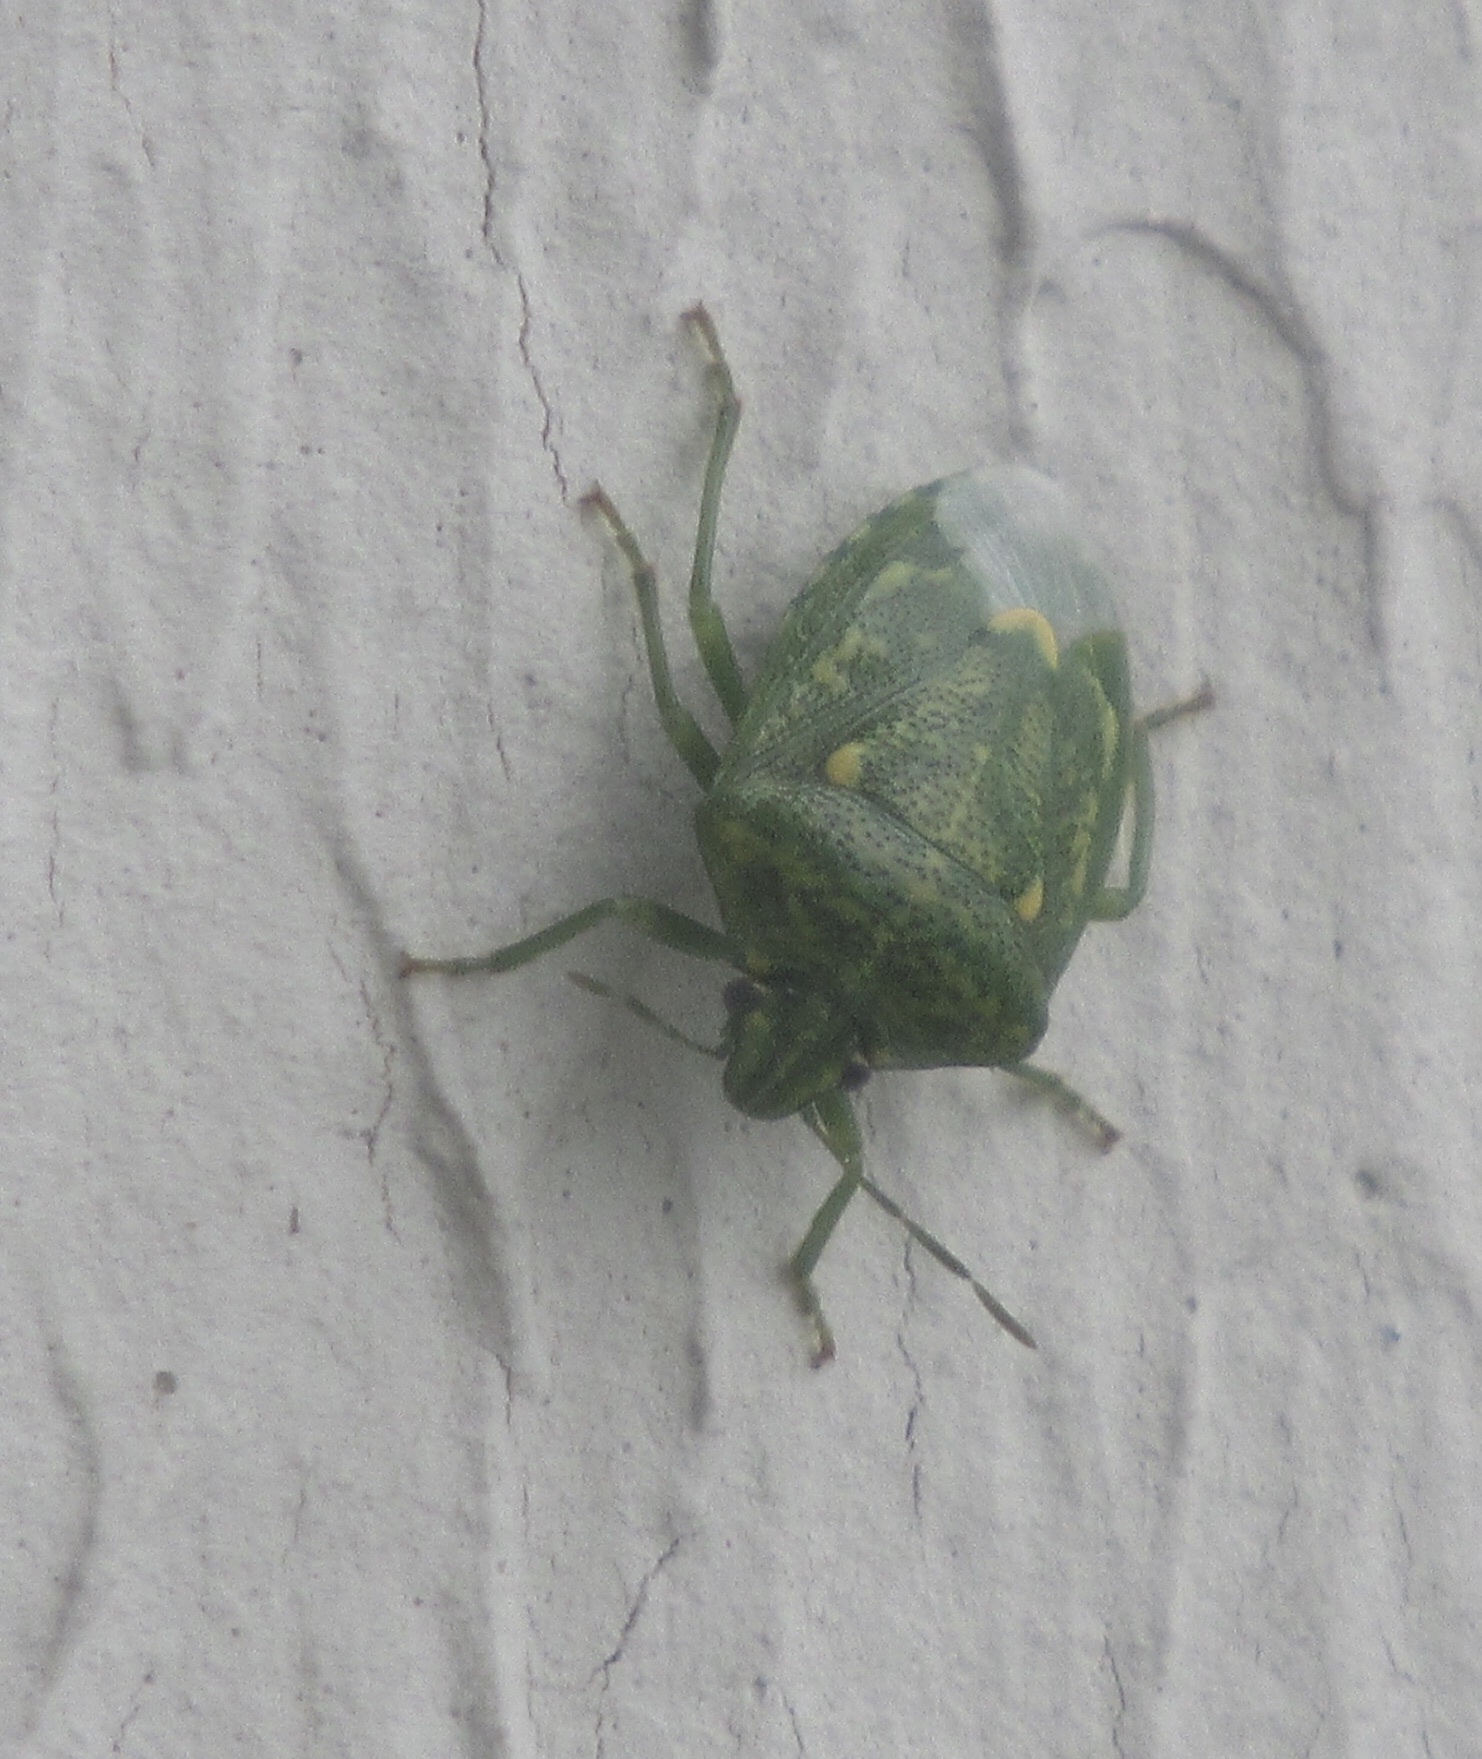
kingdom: Animalia
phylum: Arthropoda
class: Insecta
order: Hemiptera
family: Pentatomidae
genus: Banasa
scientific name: Banasa euchlora
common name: Cedar berry bug
